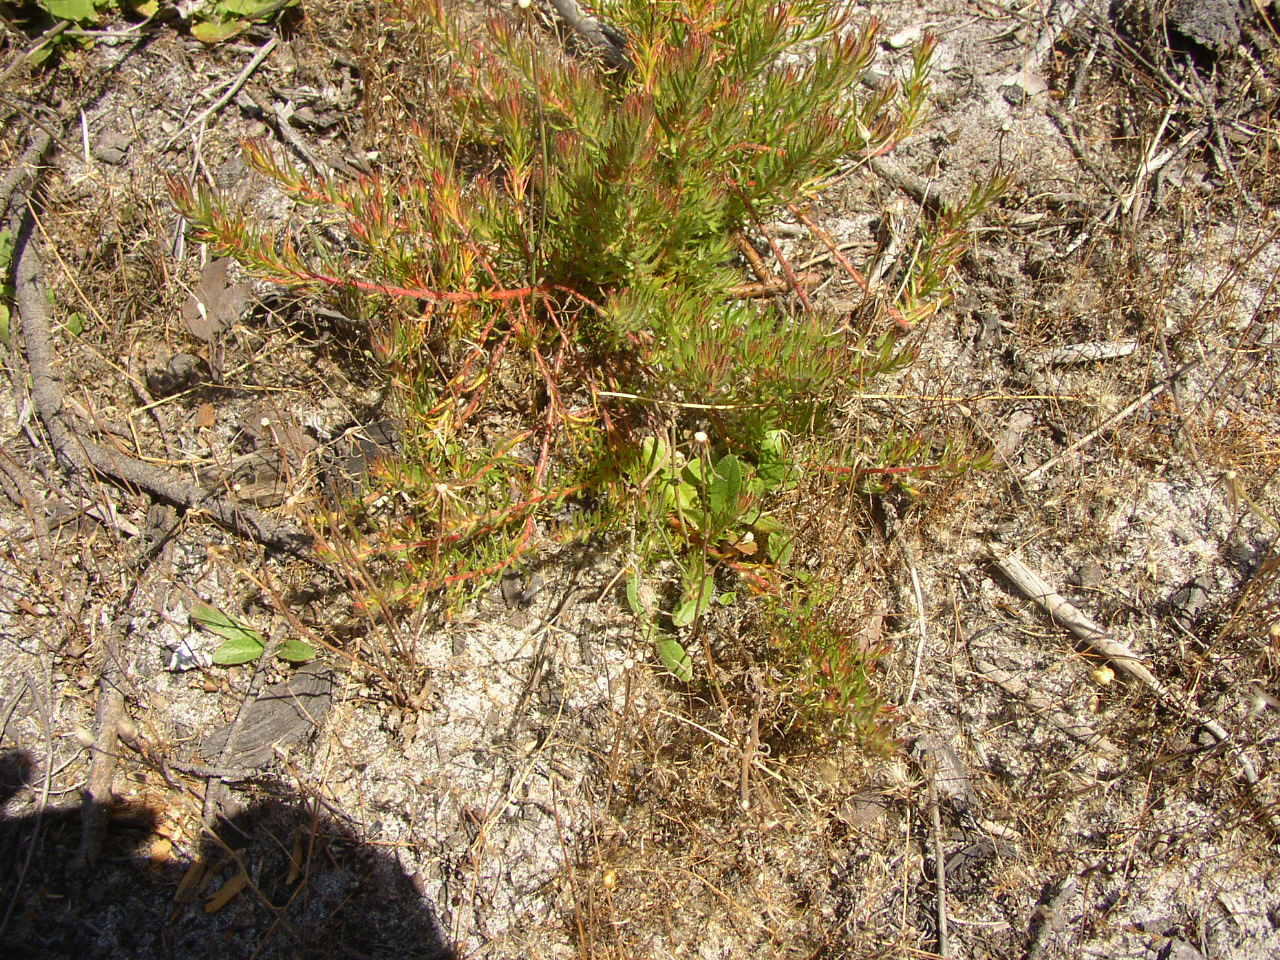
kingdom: Plantae
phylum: Tracheophyta
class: Magnoliopsida
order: Proteales
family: Proteaceae
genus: Diastella
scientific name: Diastella proteoides
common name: Flats silkypuff
